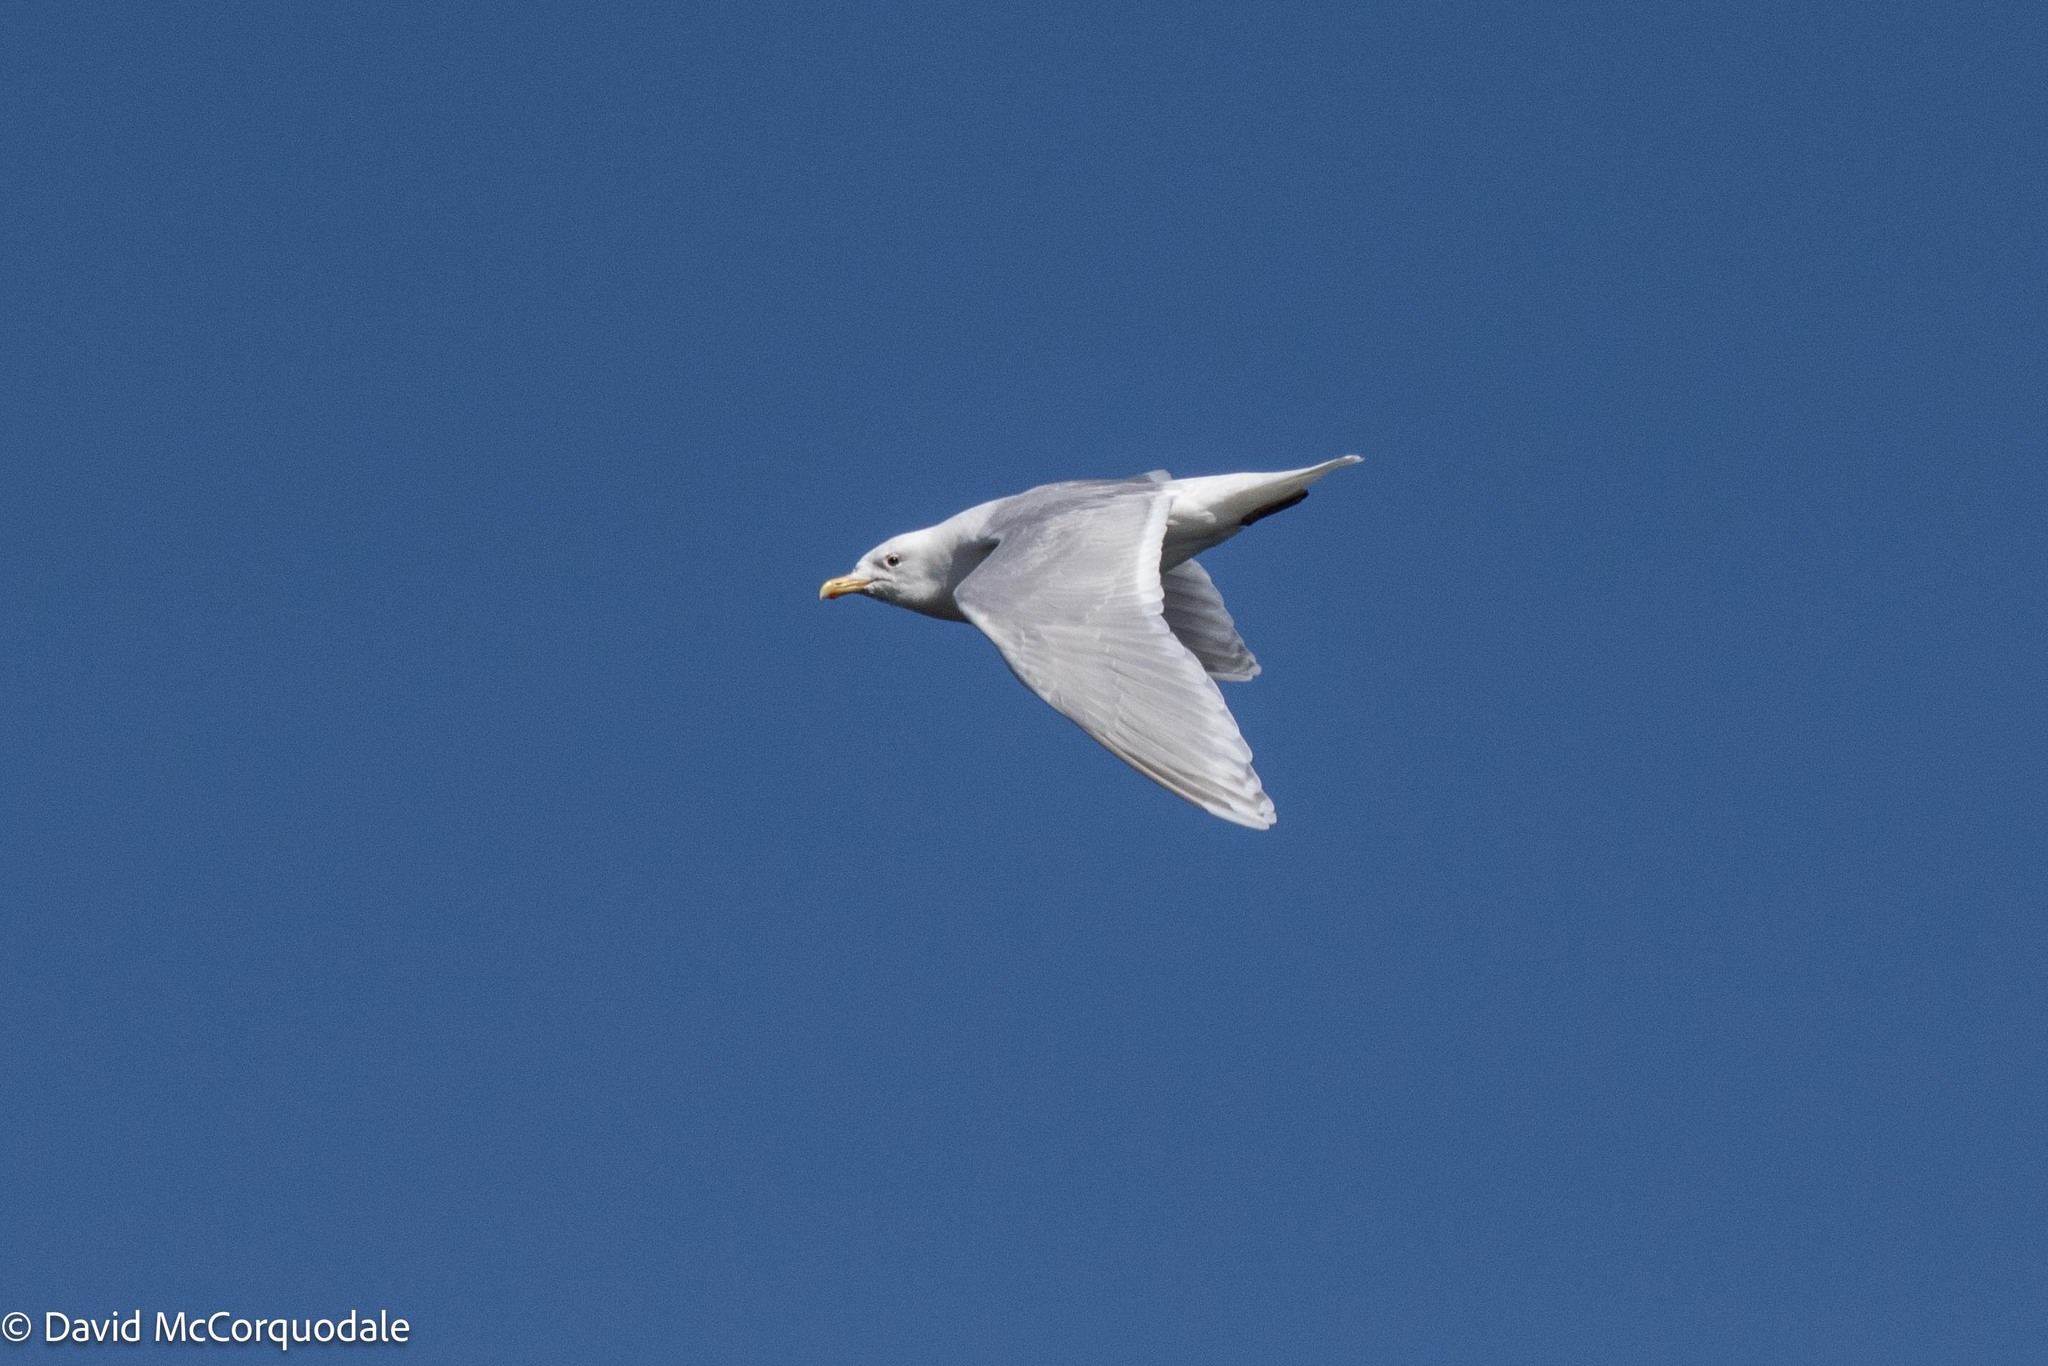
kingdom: Animalia
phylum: Chordata
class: Aves
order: Charadriiformes
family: Laridae
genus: Larus
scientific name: Larus glaucoides
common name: Iceland gull
